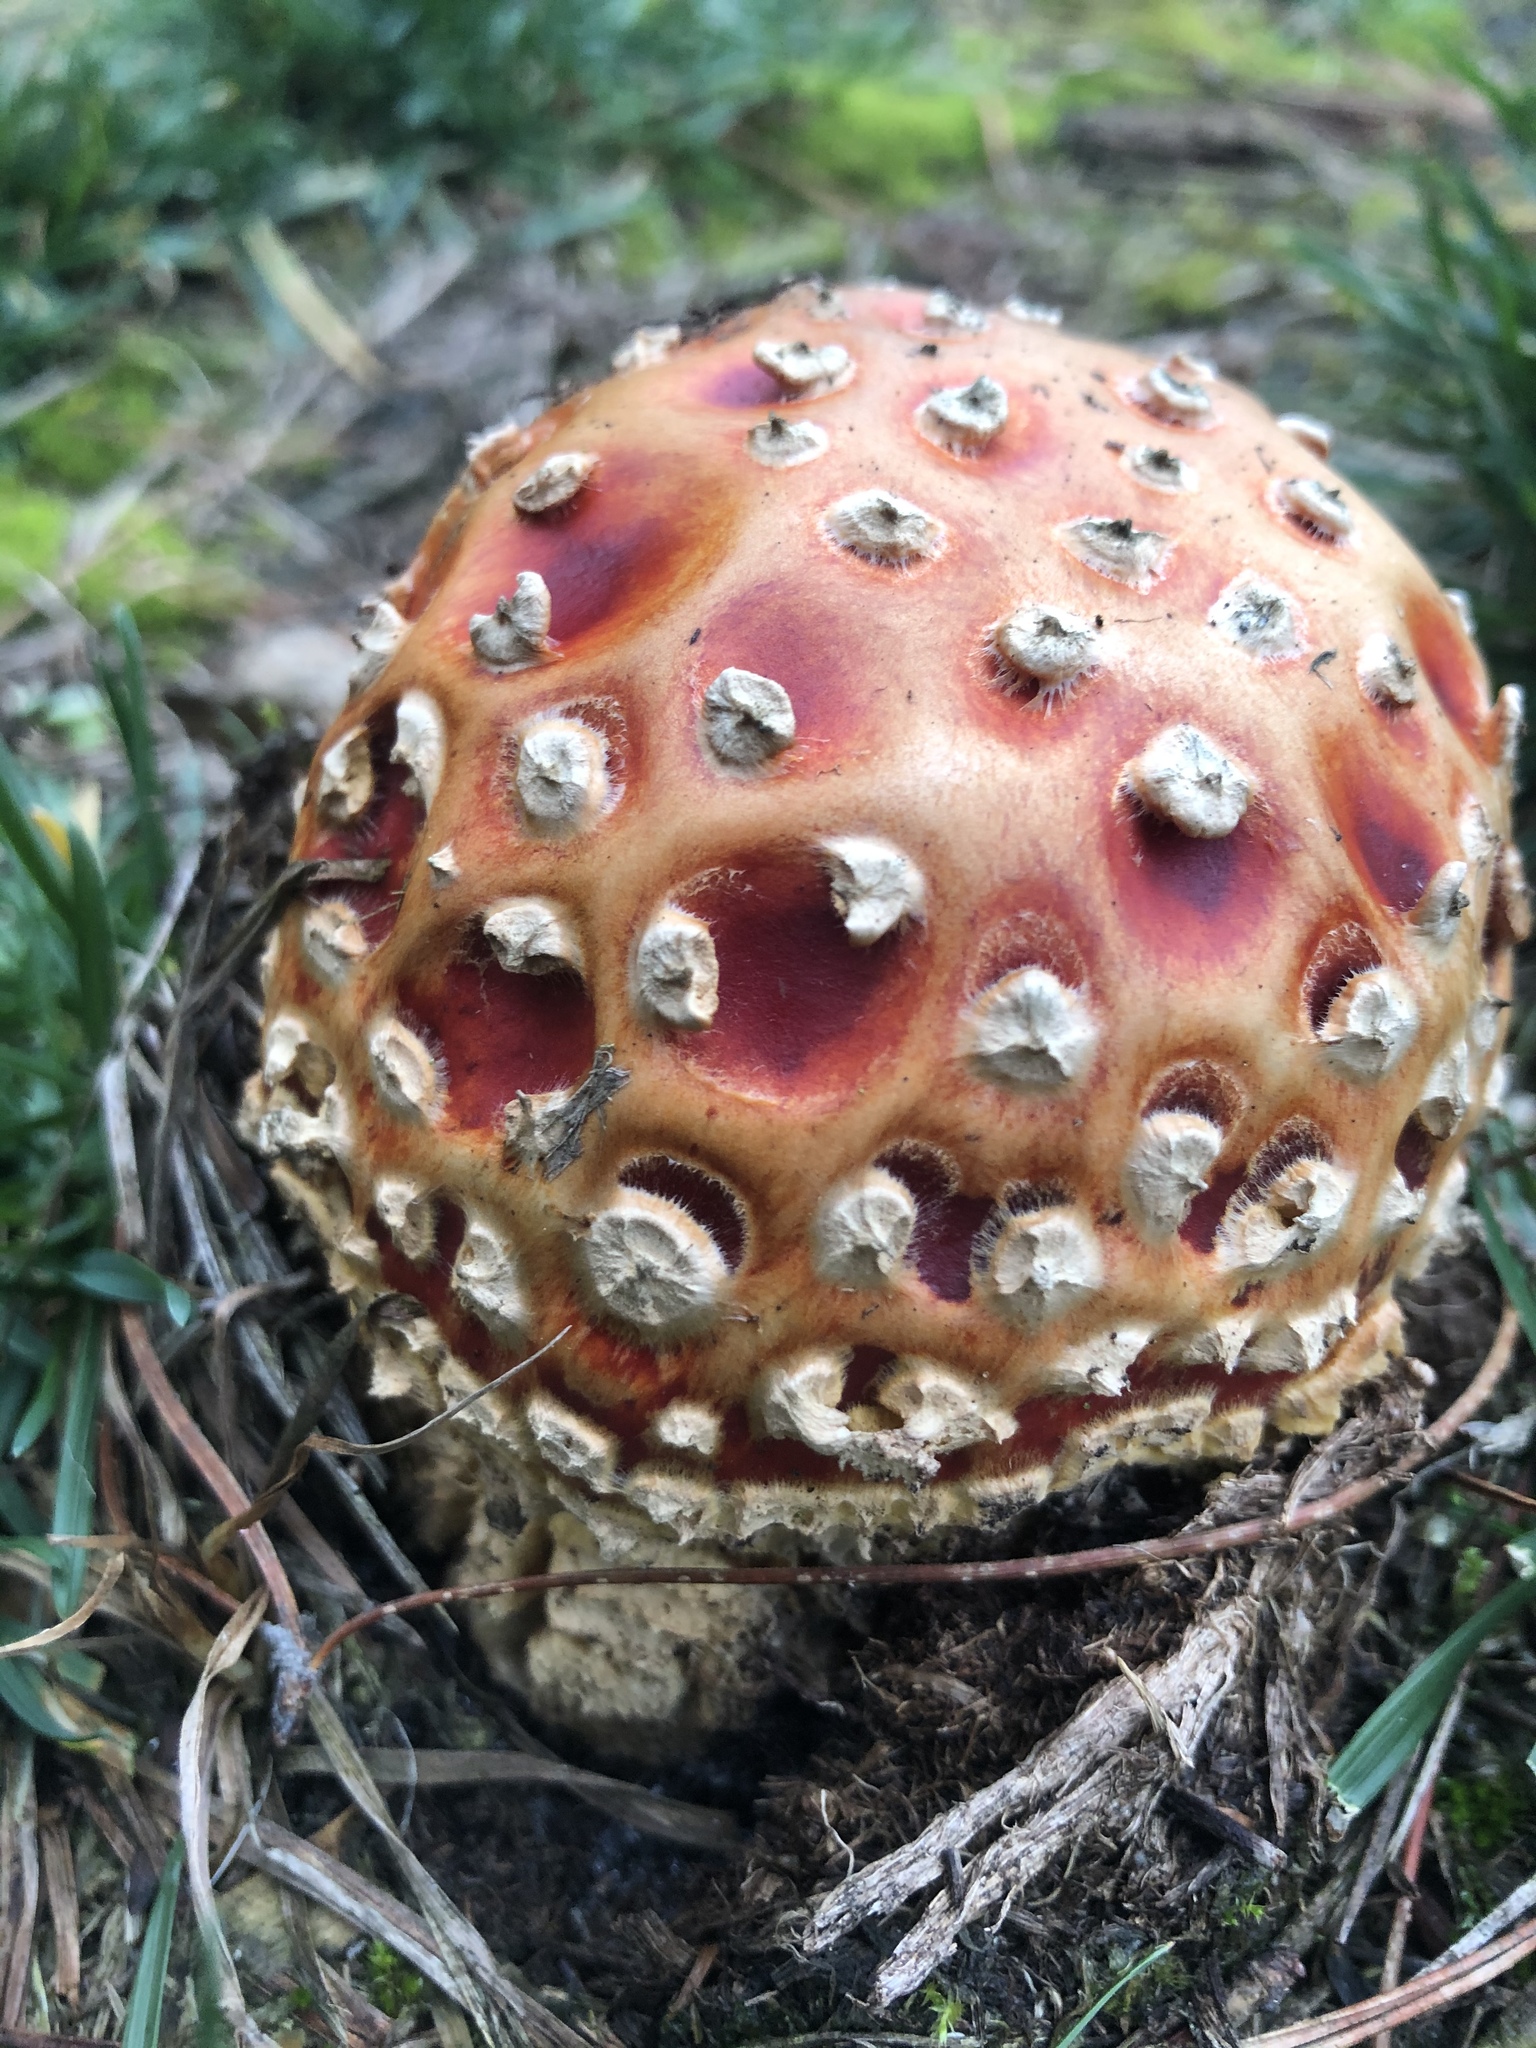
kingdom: Fungi
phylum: Basidiomycota
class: Agaricomycetes
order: Agaricales
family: Amanitaceae
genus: Amanita
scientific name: Amanita muscaria
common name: Fly agaric
